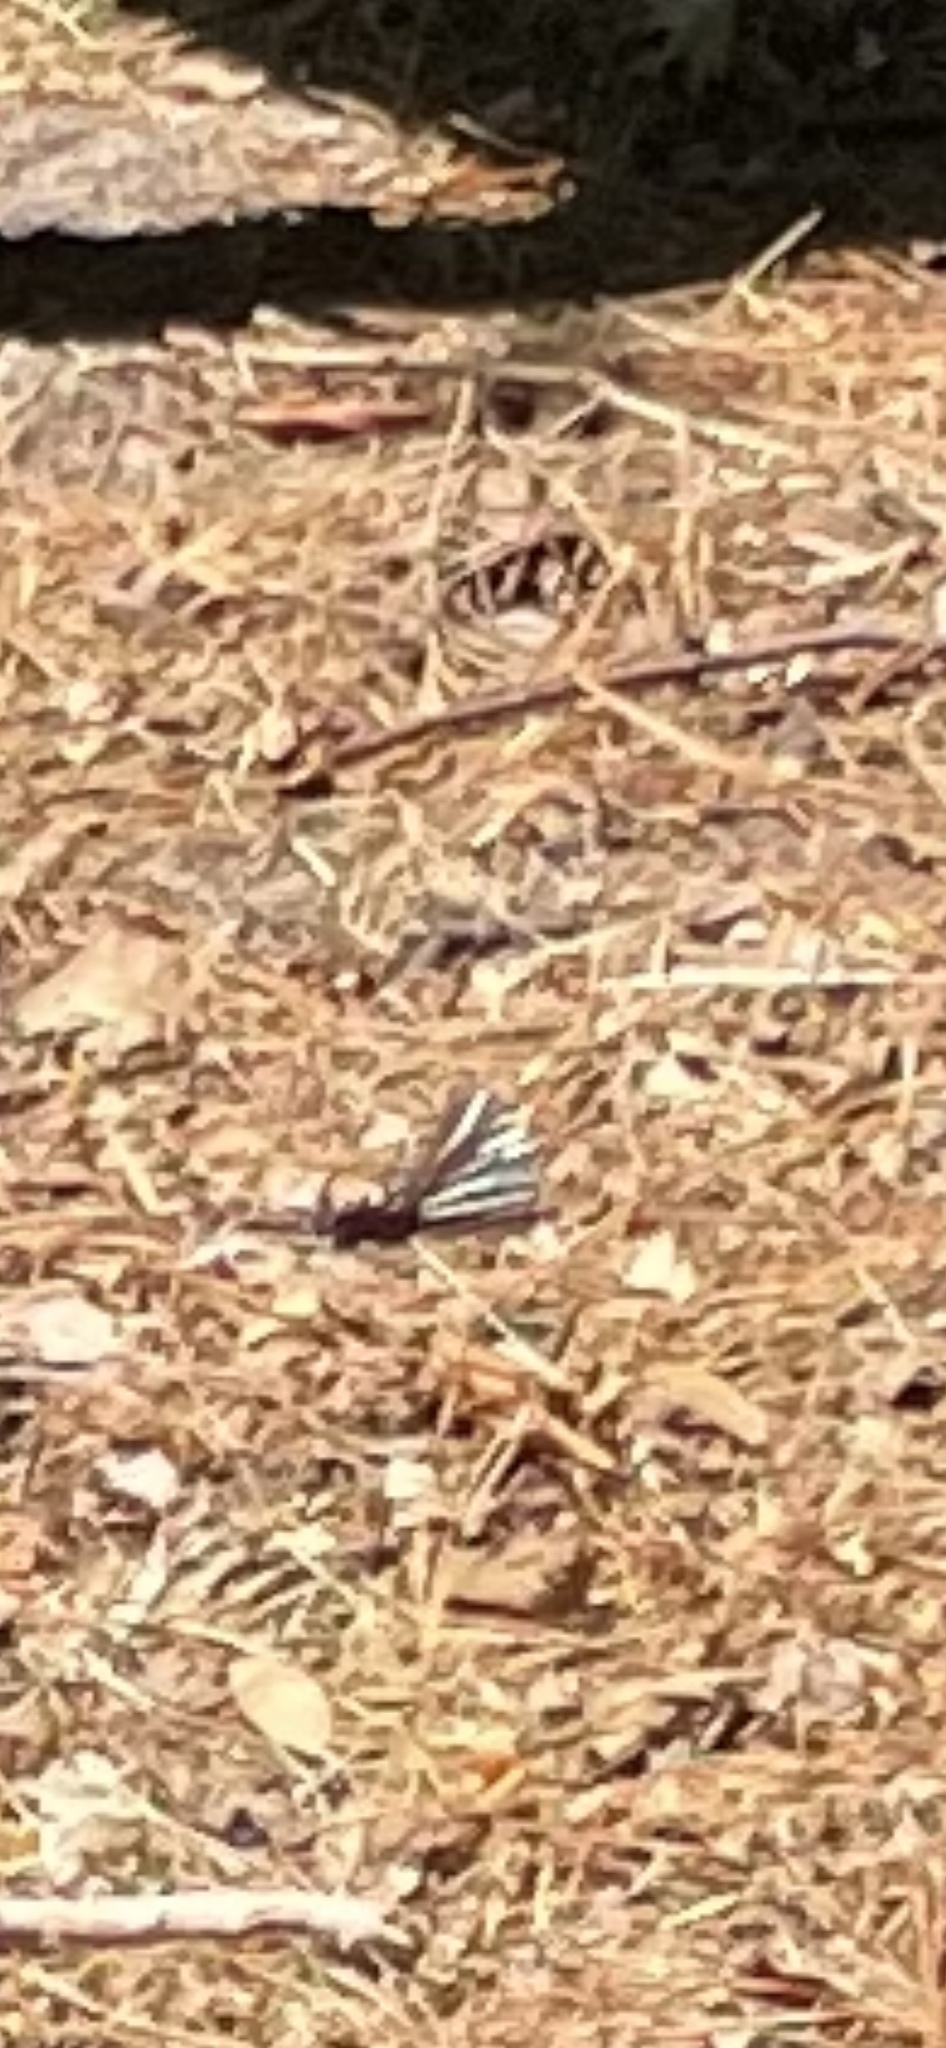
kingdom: Animalia
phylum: Arthropoda
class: Insecta
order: Lepidoptera
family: Papilionidae
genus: Protographium
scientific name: Protographium marcellus
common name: Zebra swallowtail
